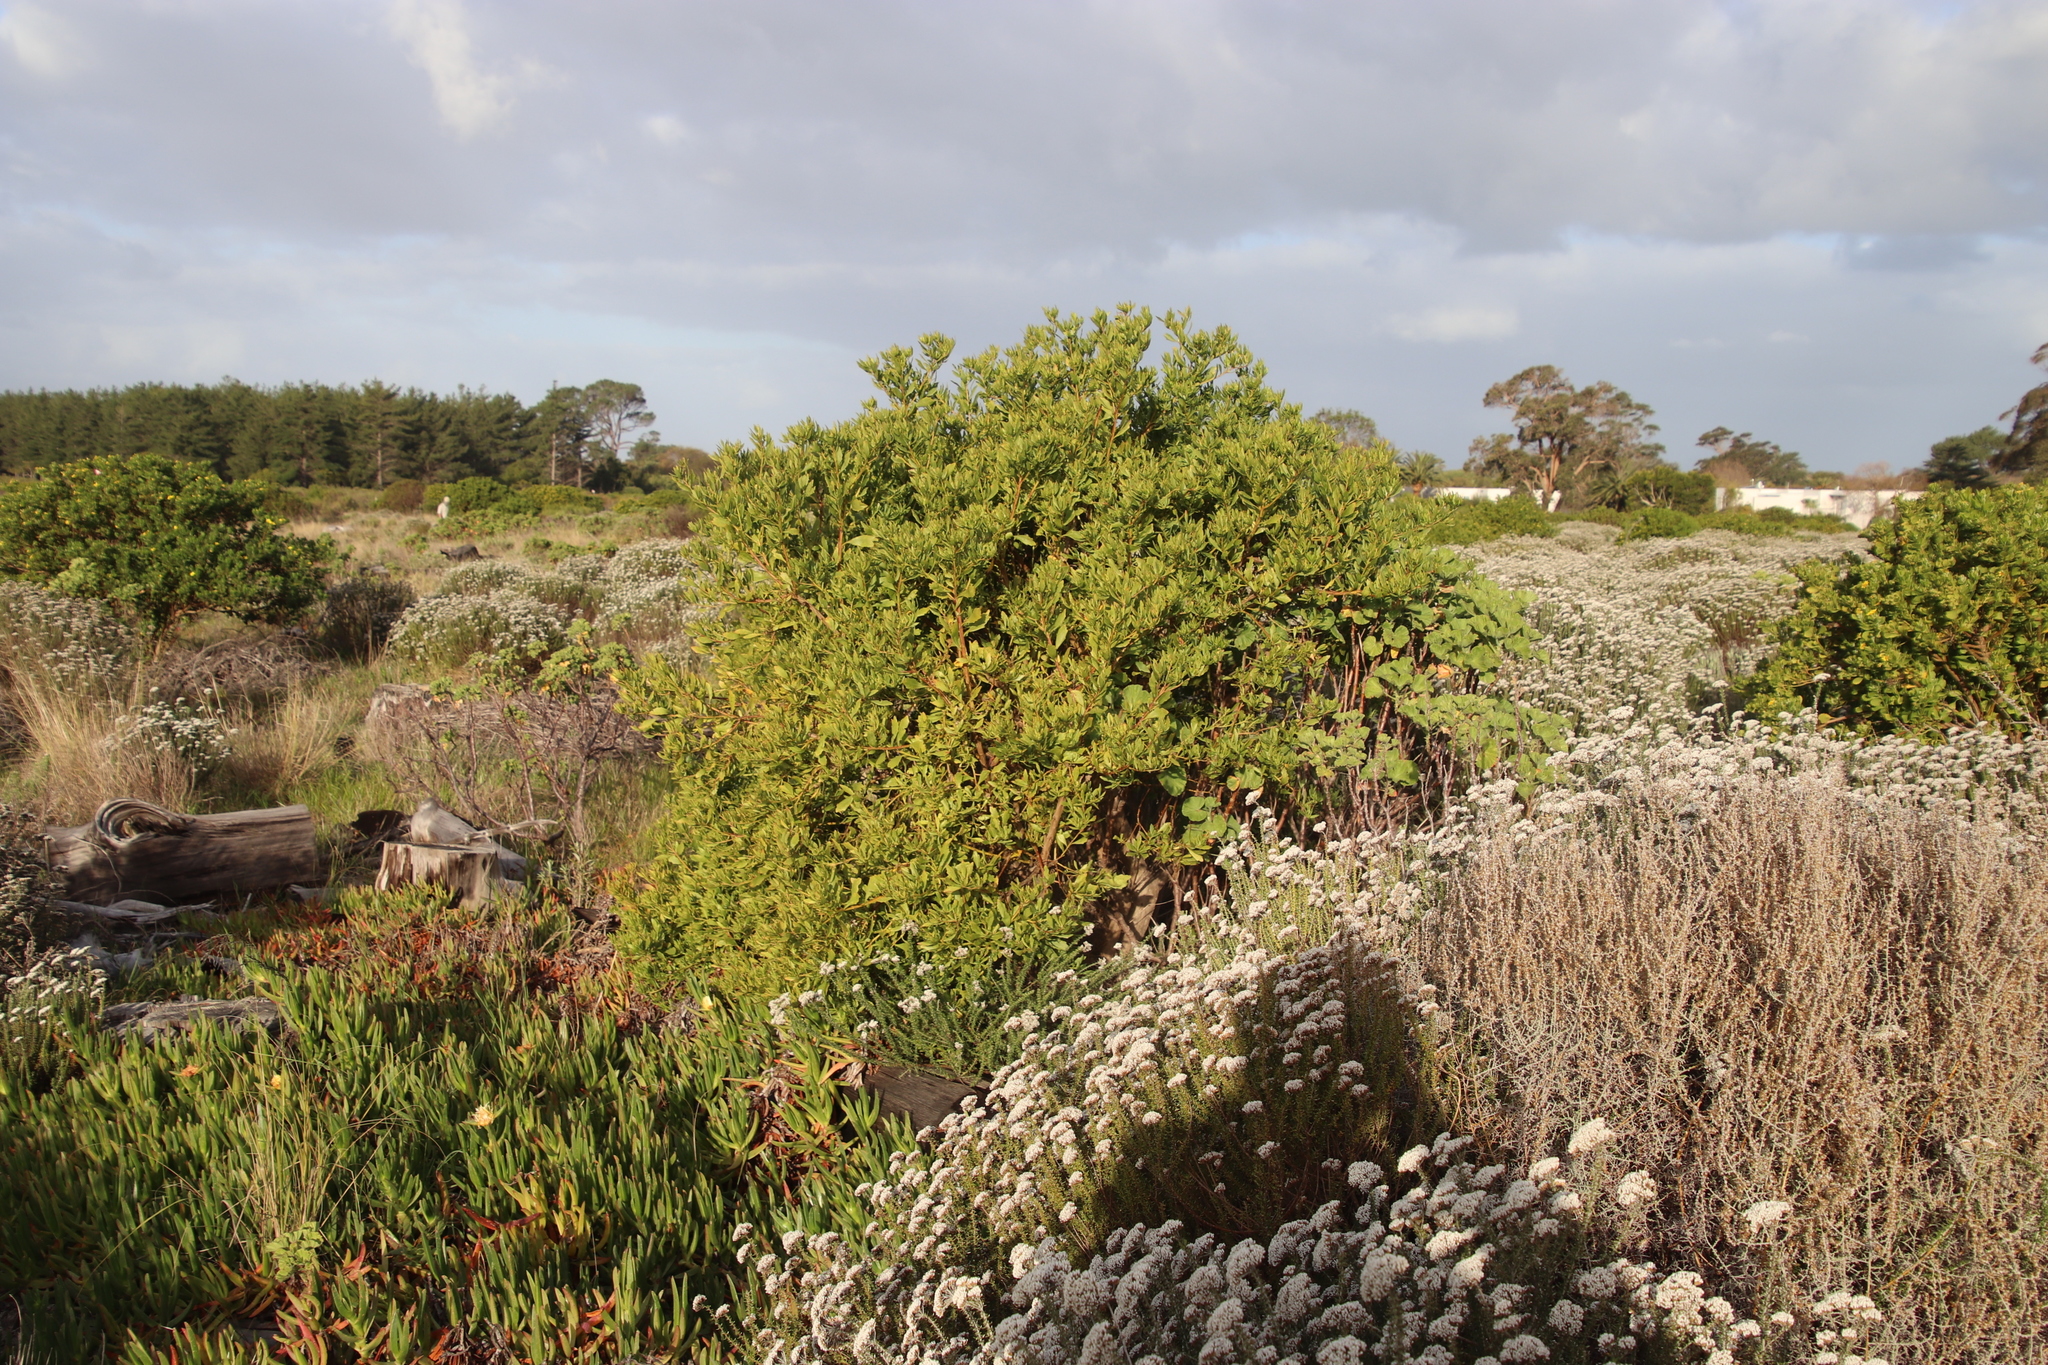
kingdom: Plantae
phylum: Tracheophyta
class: Magnoliopsida
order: Asterales
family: Asteraceae
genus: Osteospermum
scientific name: Osteospermum moniliferum
